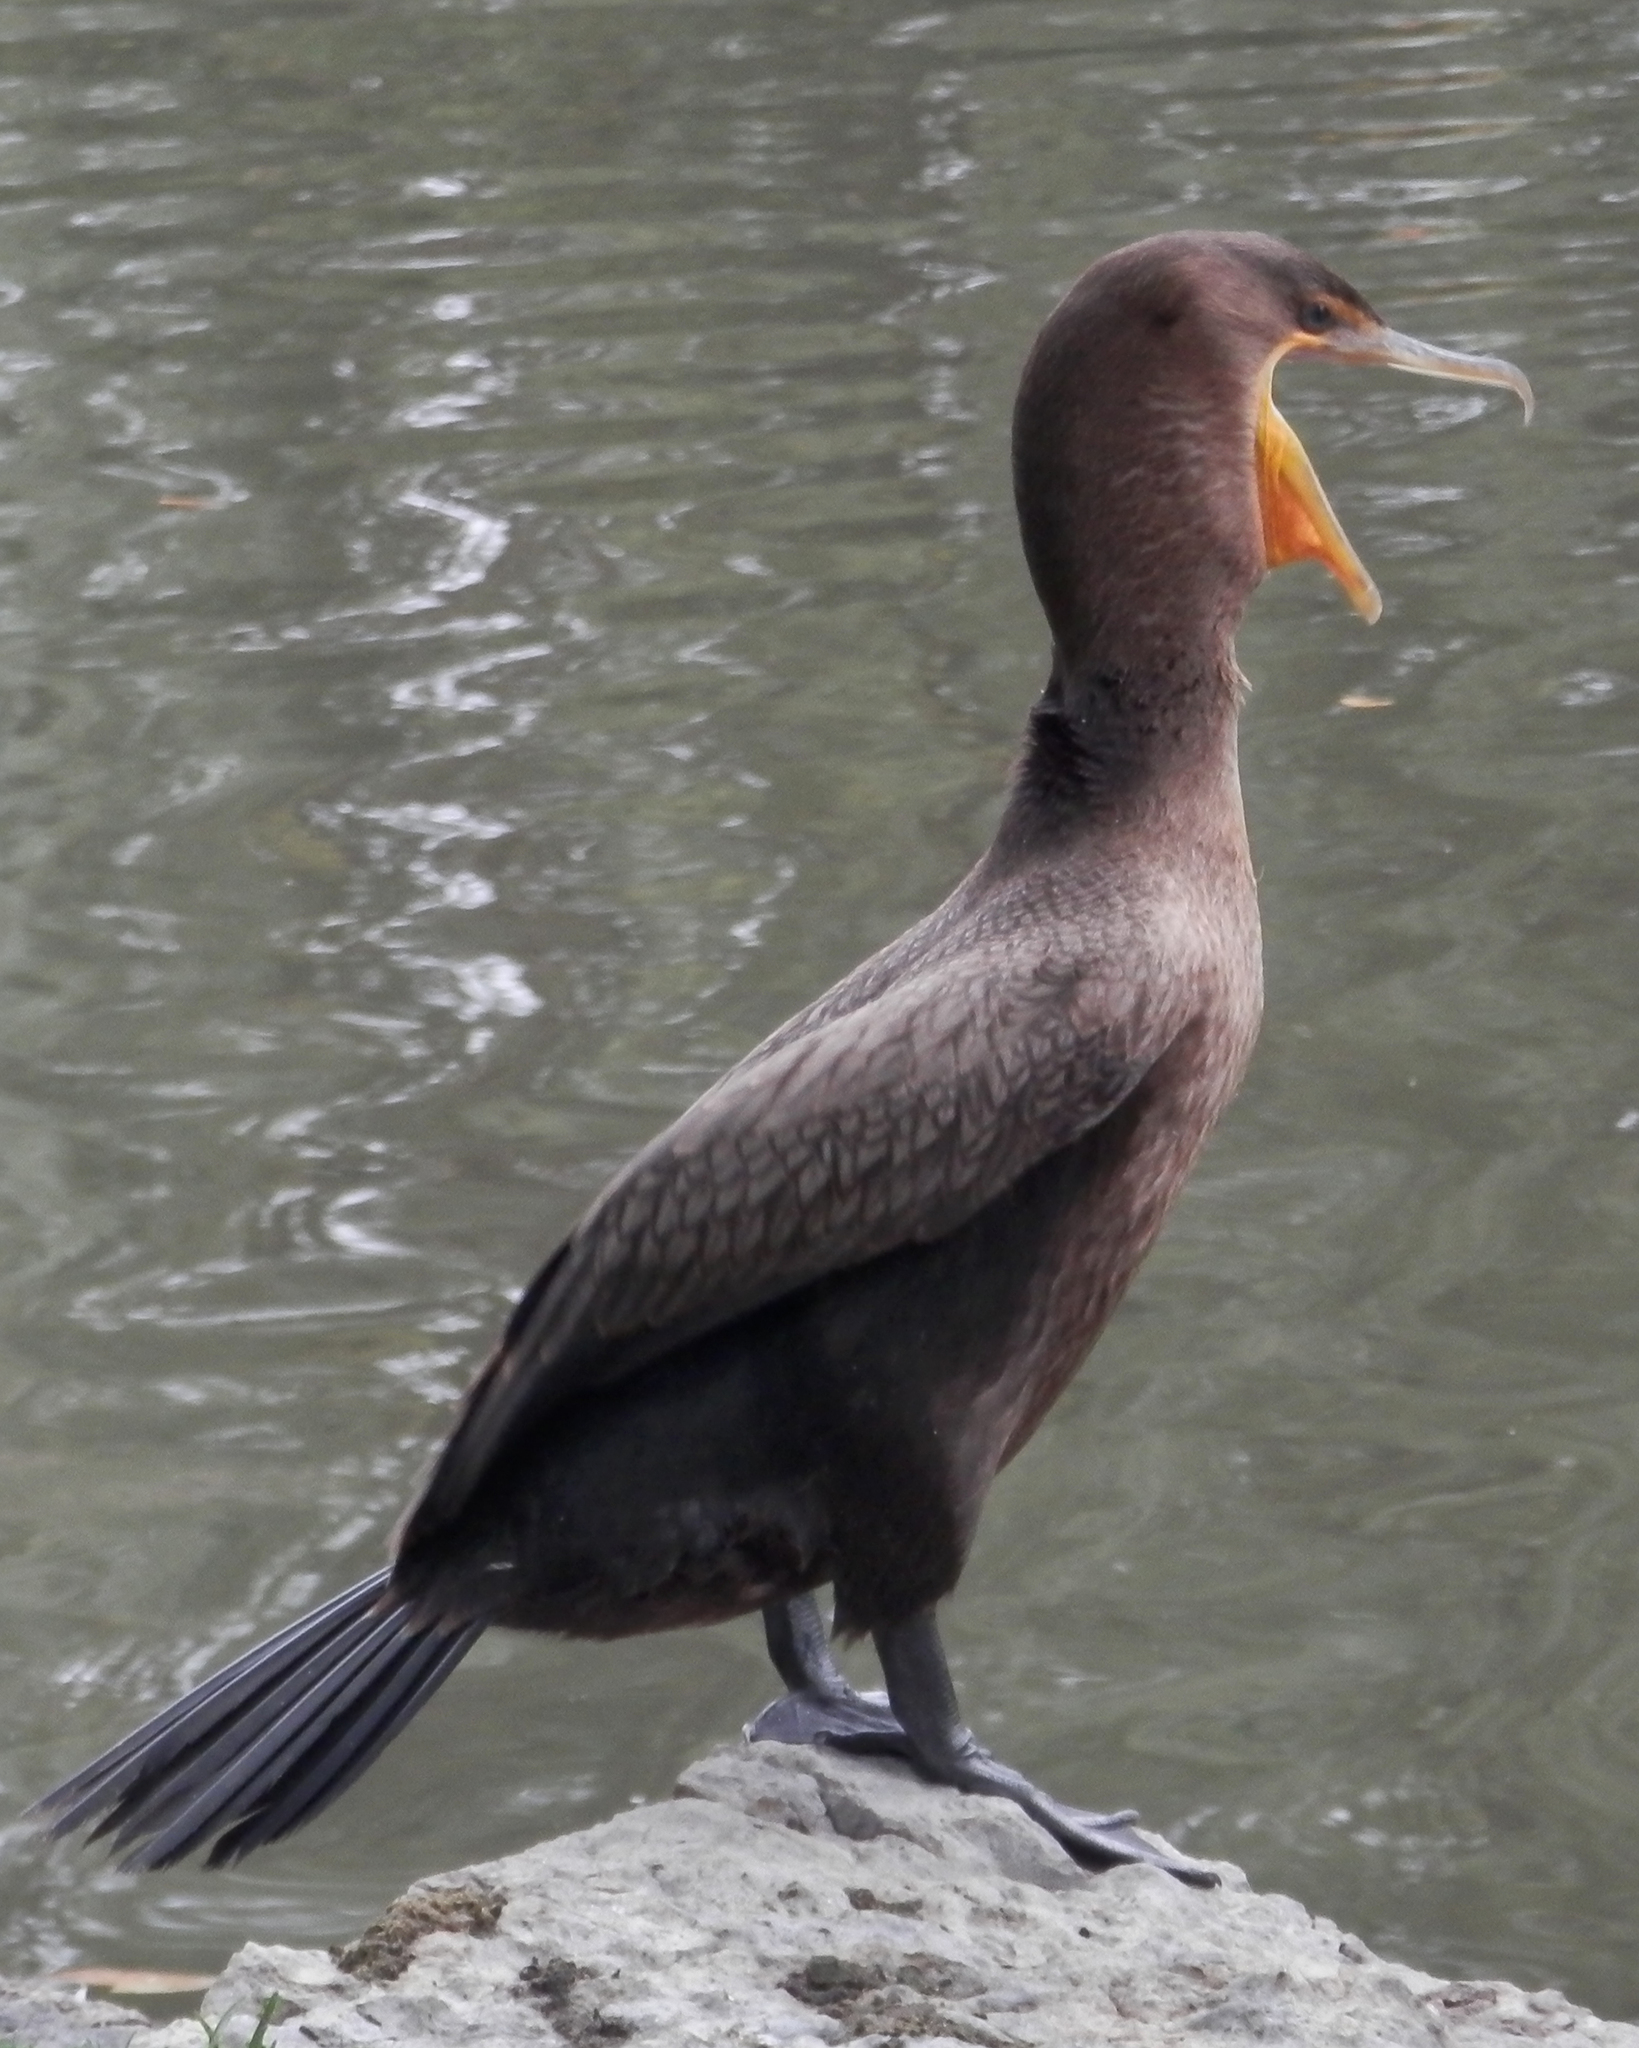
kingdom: Animalia
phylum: Chordata
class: Aves
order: Suliformes
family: Phalacrocoracidae
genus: Phalacrocorax
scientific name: Phalacrocorax auritus
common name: Double-crested cormorant
